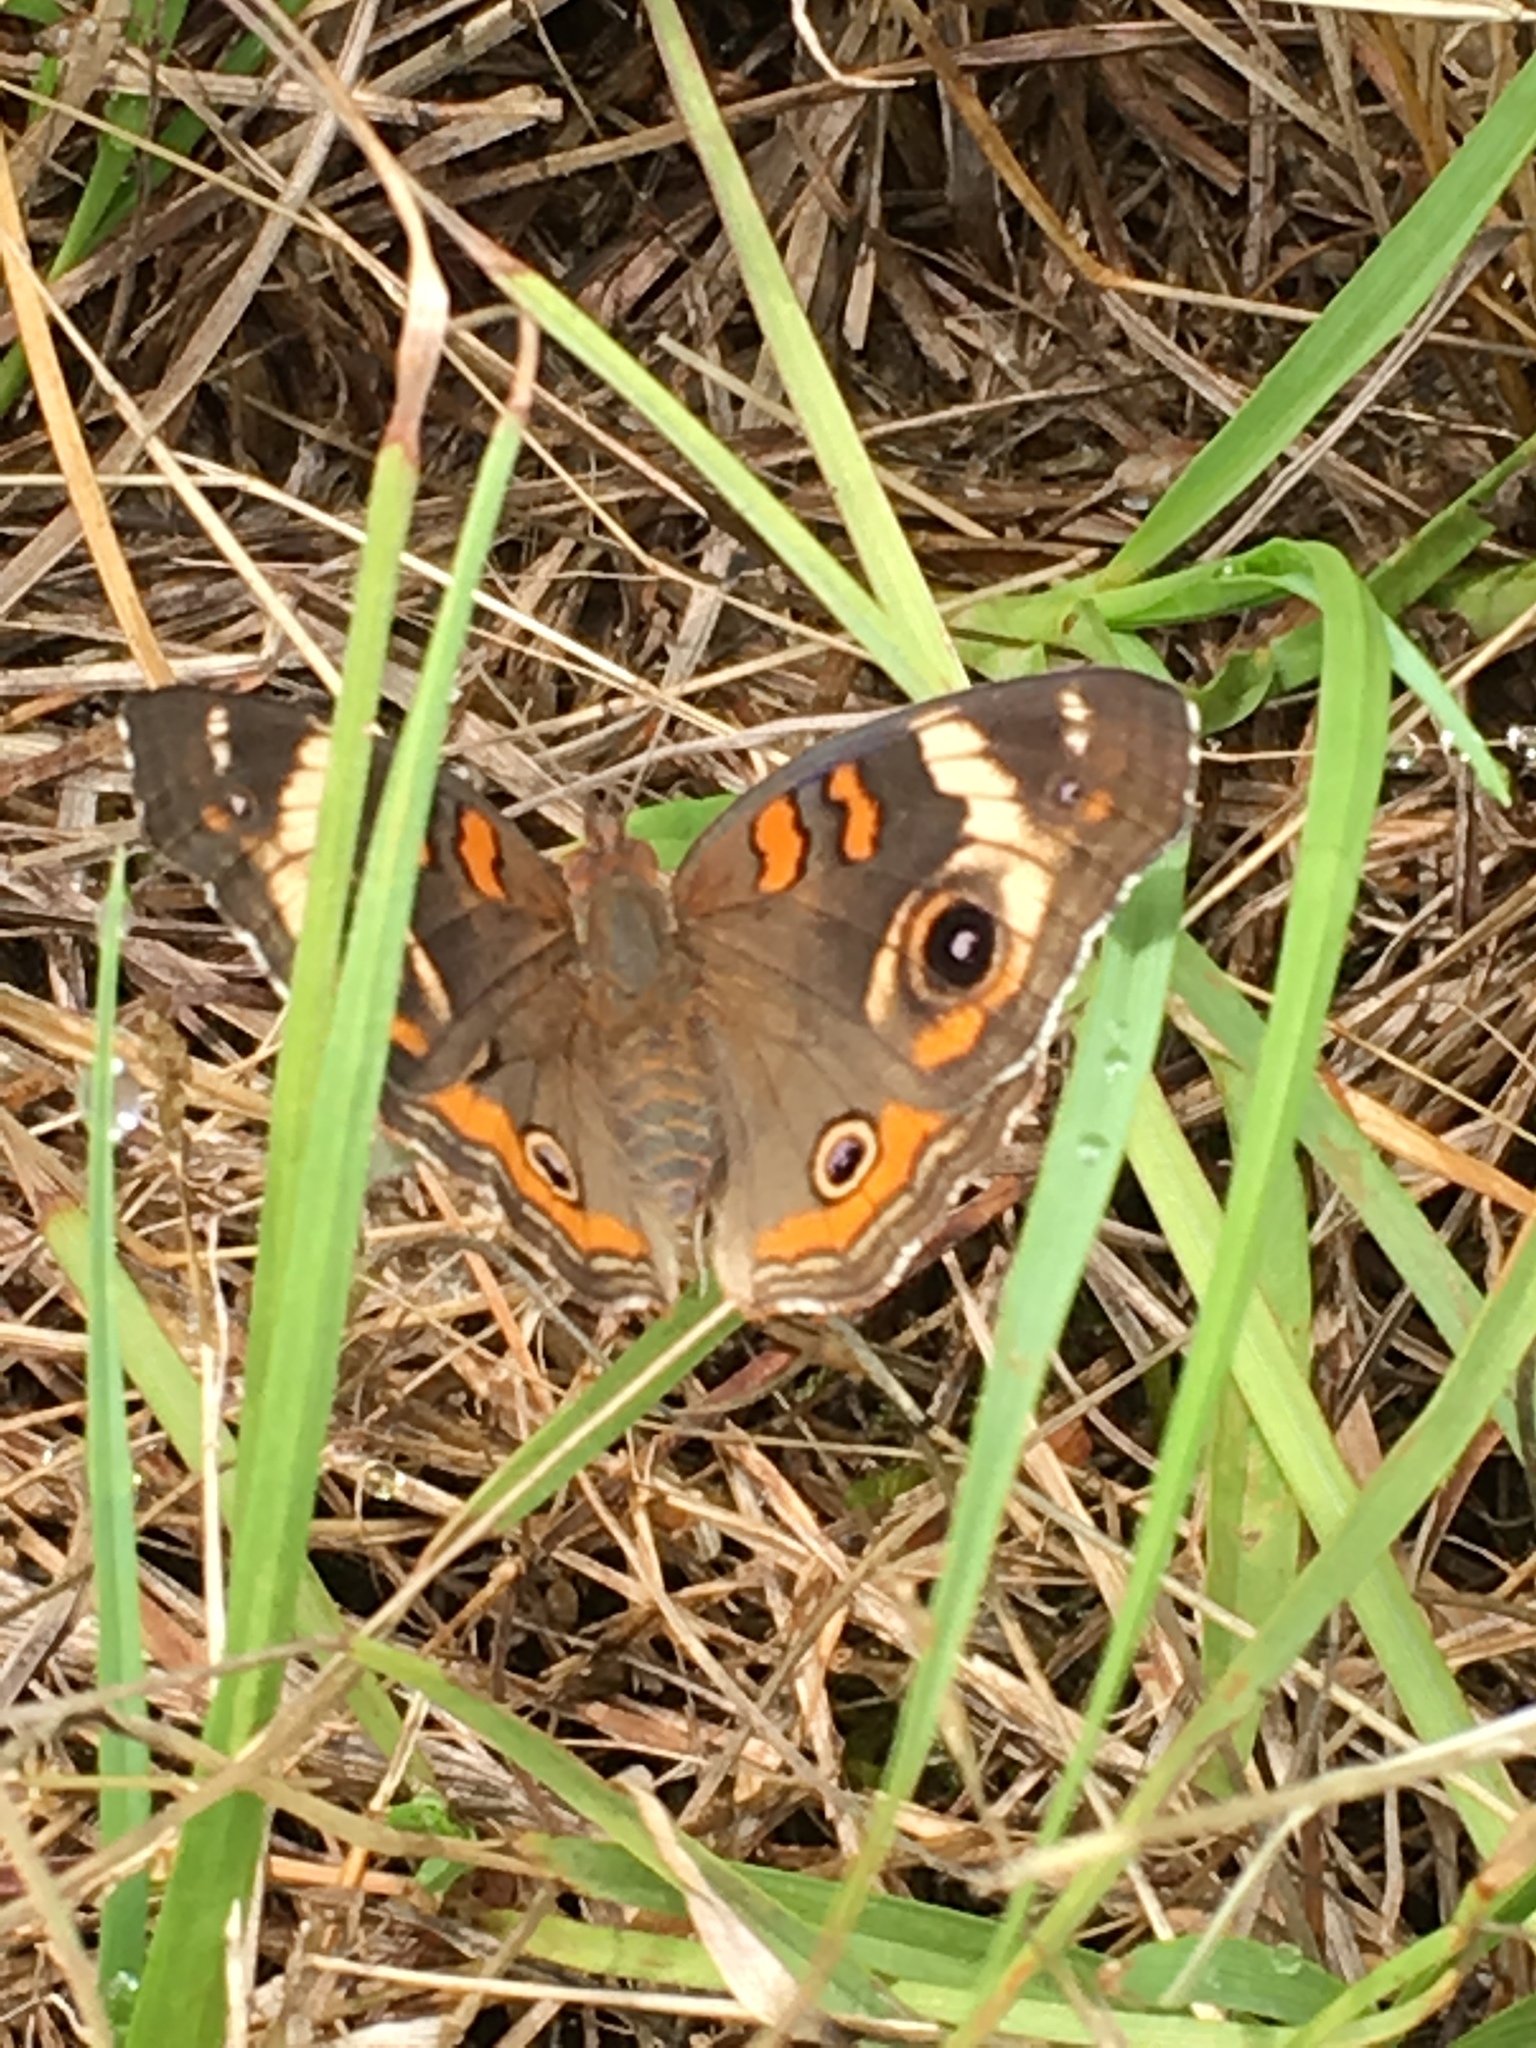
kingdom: Animalia
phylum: Arthropoda
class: Insecta
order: Lepidoptera
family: Nymphalidae
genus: Junonia
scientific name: Junonia coenia
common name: Common buckeye
